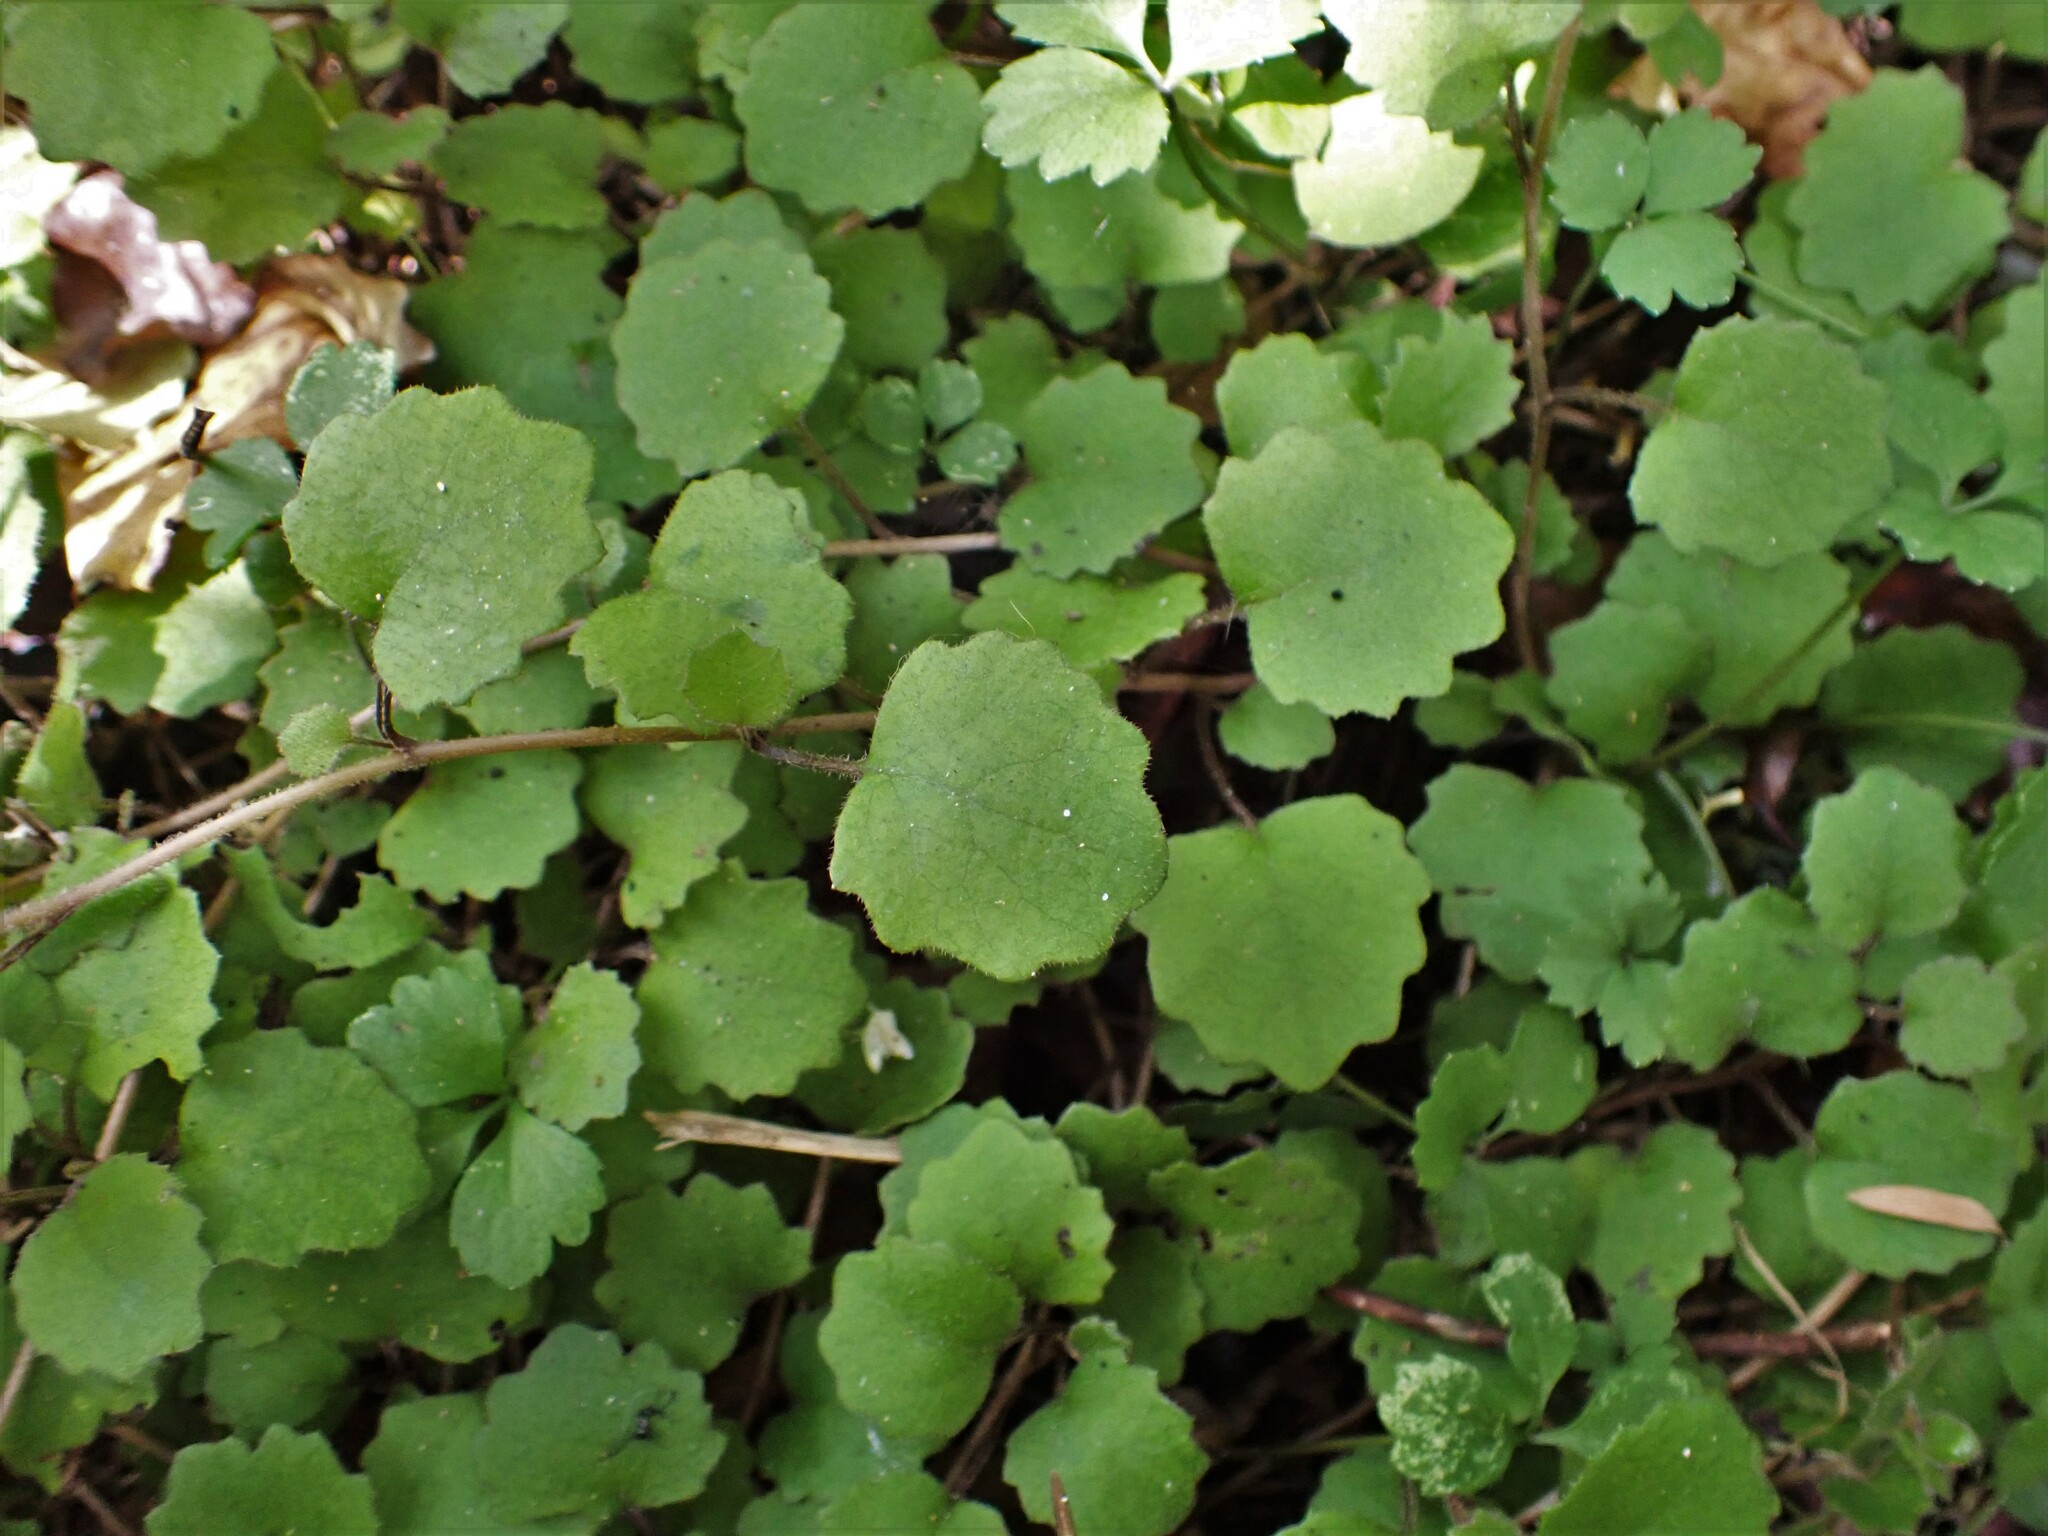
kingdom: Plantae
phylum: Tracheophyta
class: Magnoliopsida
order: Myrtales
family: Onagraceae
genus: Fuchsia
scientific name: Fuchsia perscandens
